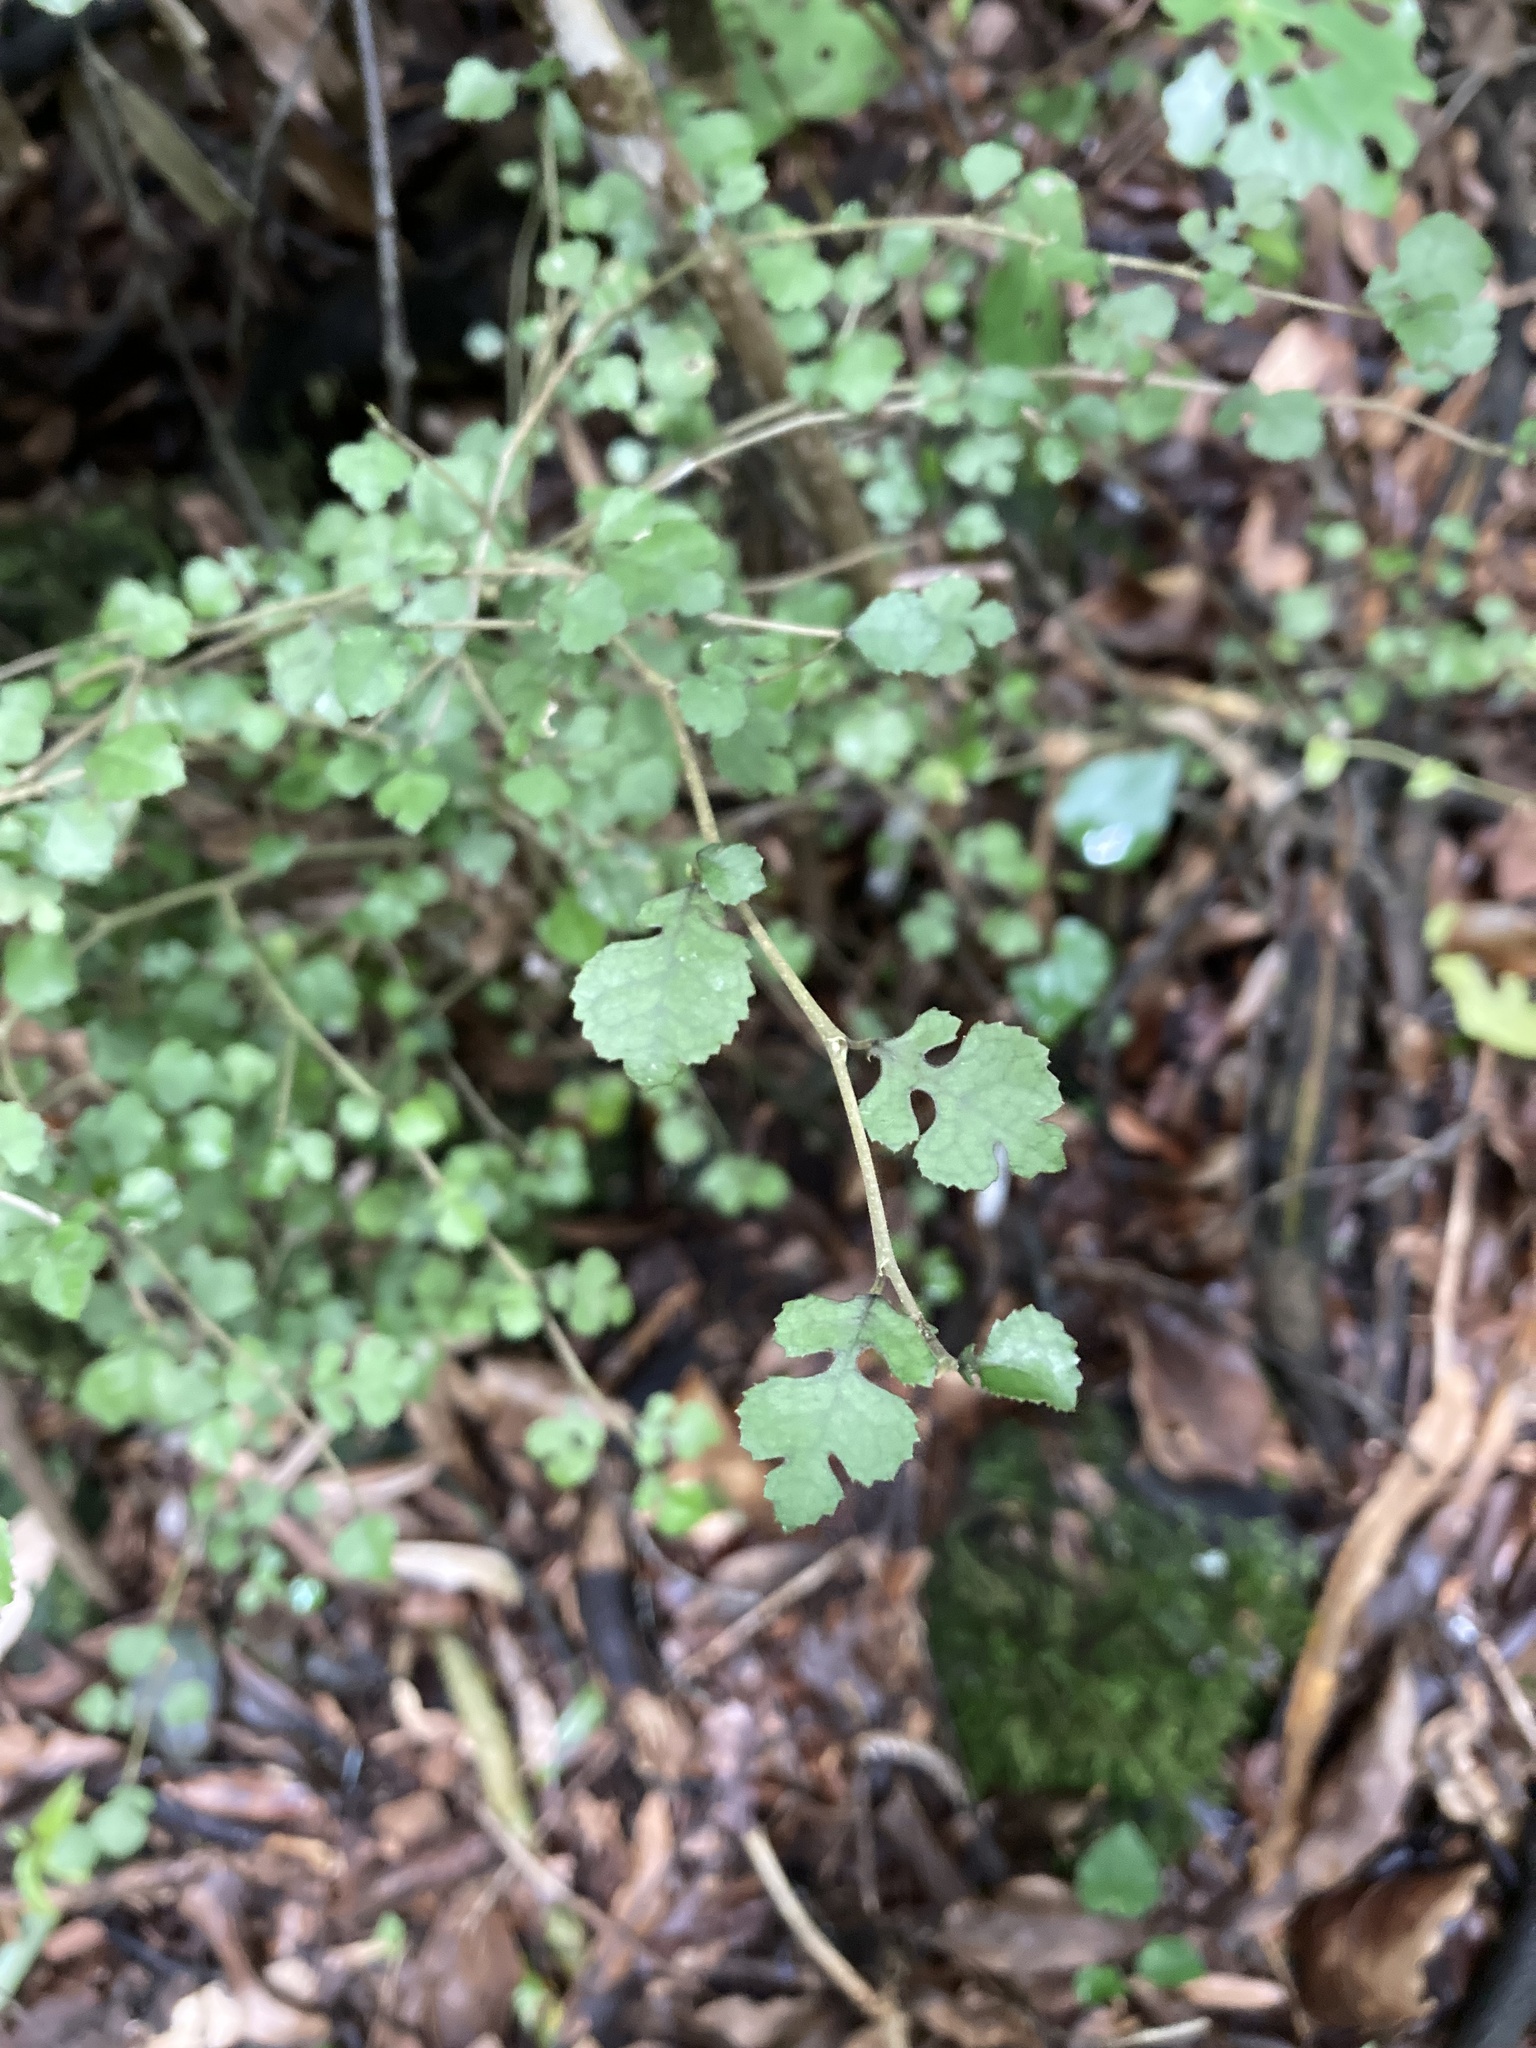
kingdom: Plantae
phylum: Tracheophyta
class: Magnoliopsida
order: Rosales
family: Moraceae
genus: Paratrophis
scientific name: Paratrophis microphylla
